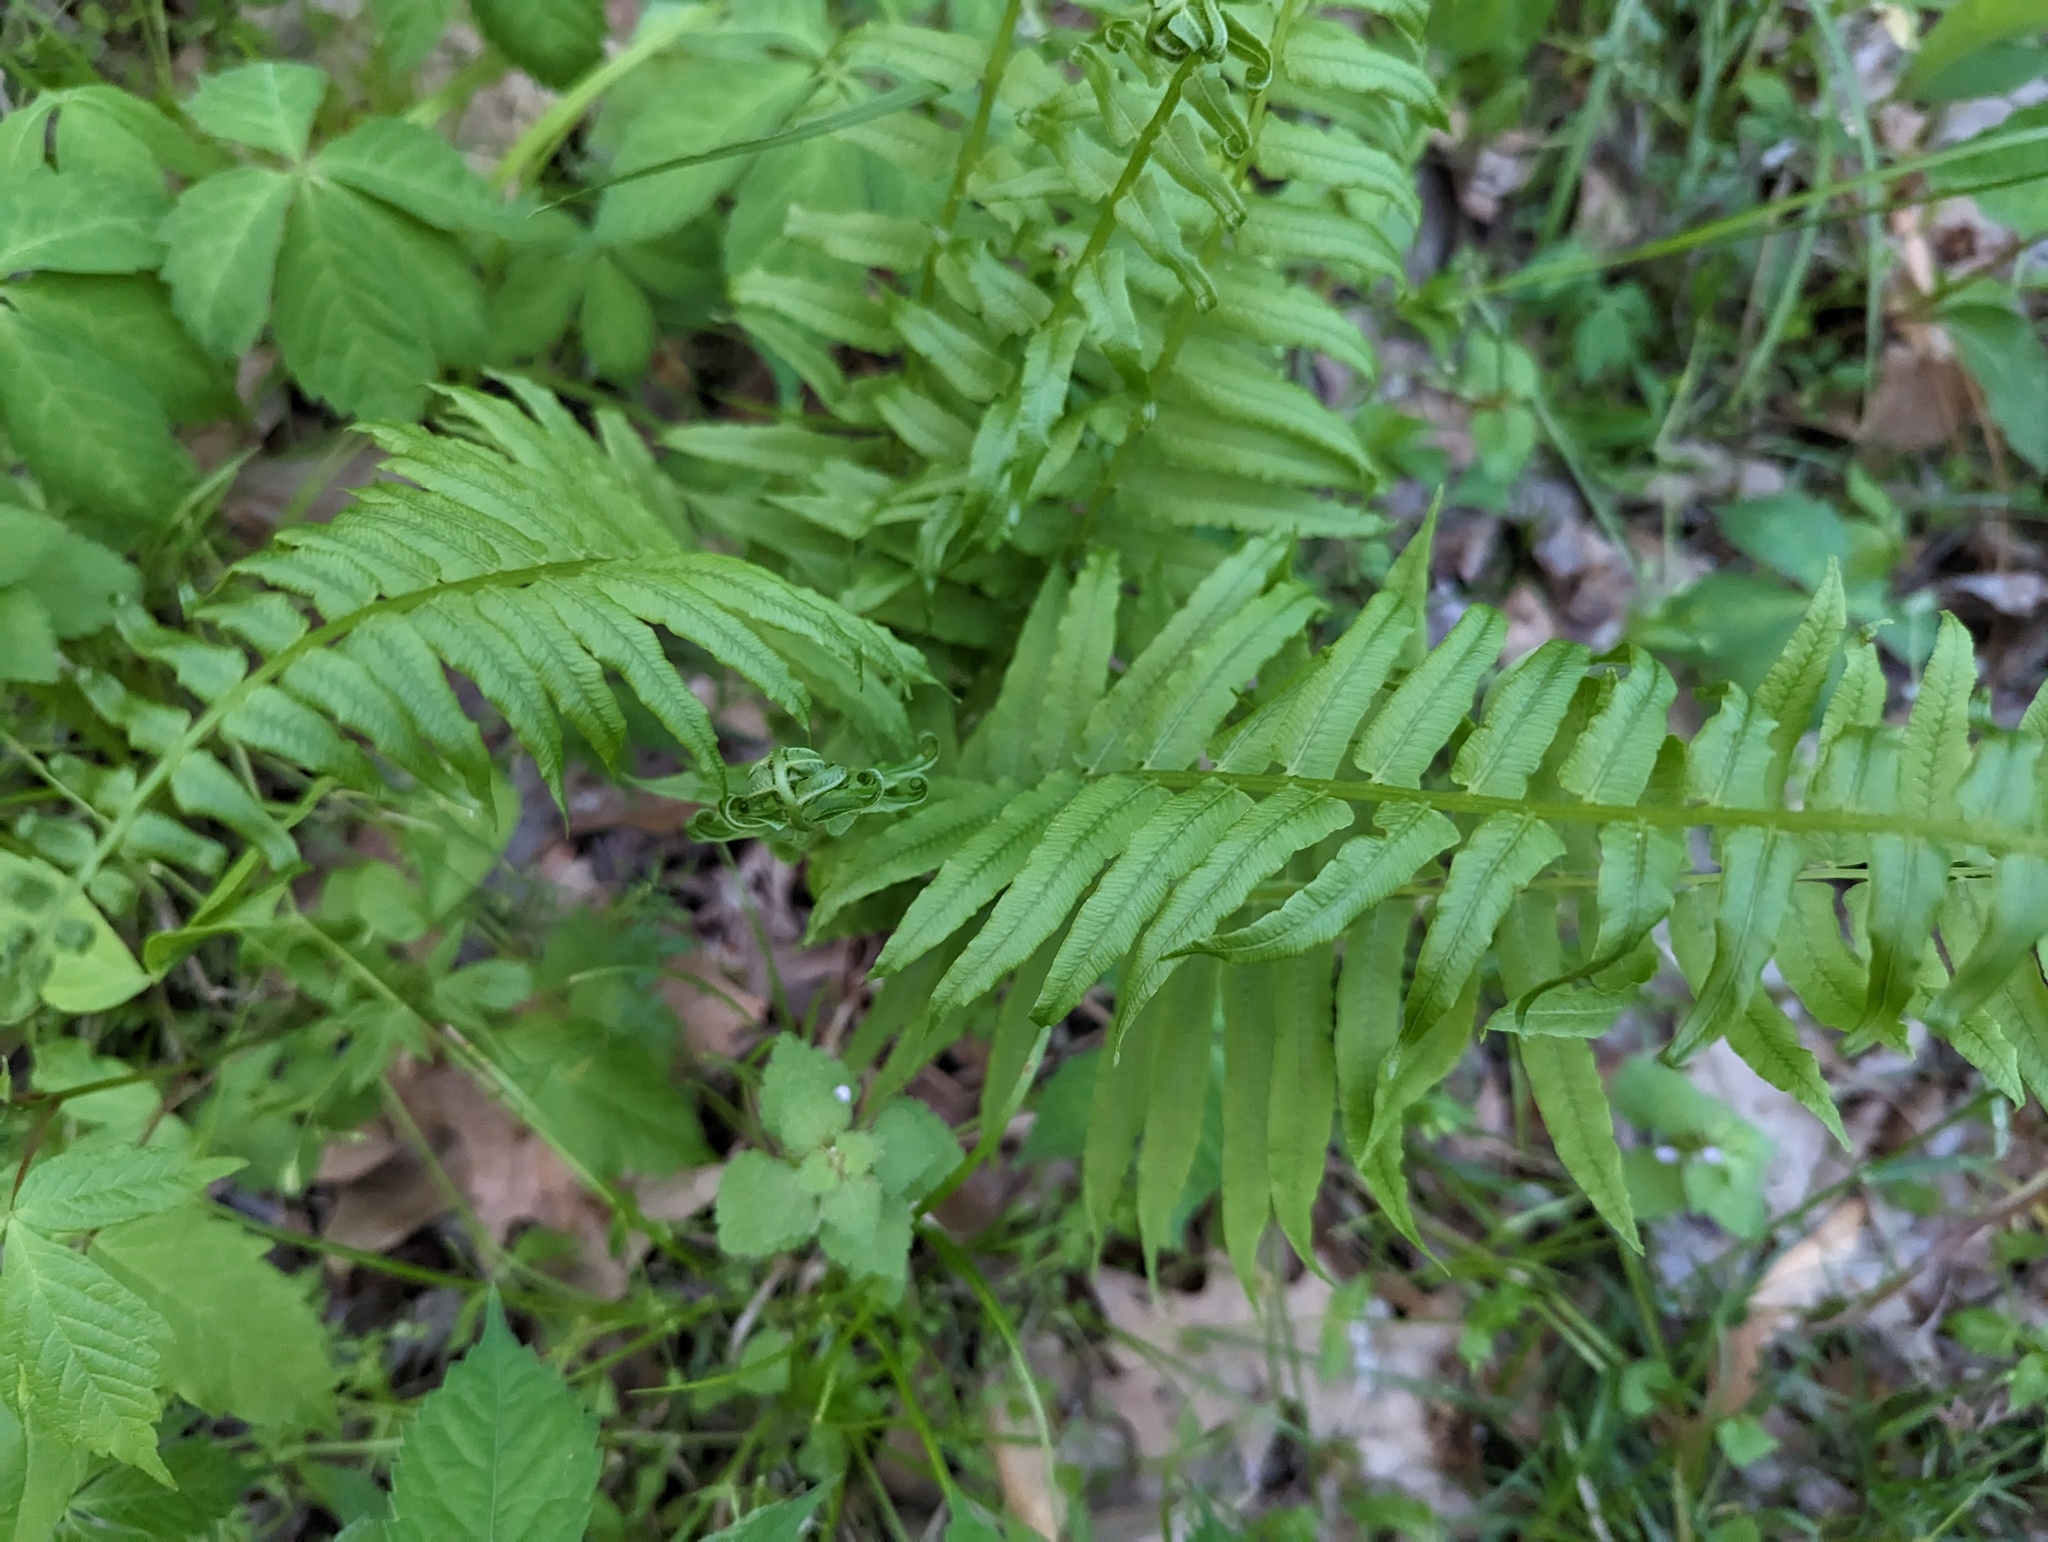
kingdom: Plantae
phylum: Tracheophyta
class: Polypodiopsida
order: Polypodiales
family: Diplaziopsidaceae
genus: Homalosorus
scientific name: Homalosorus pycnocarpos
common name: Glade fern
